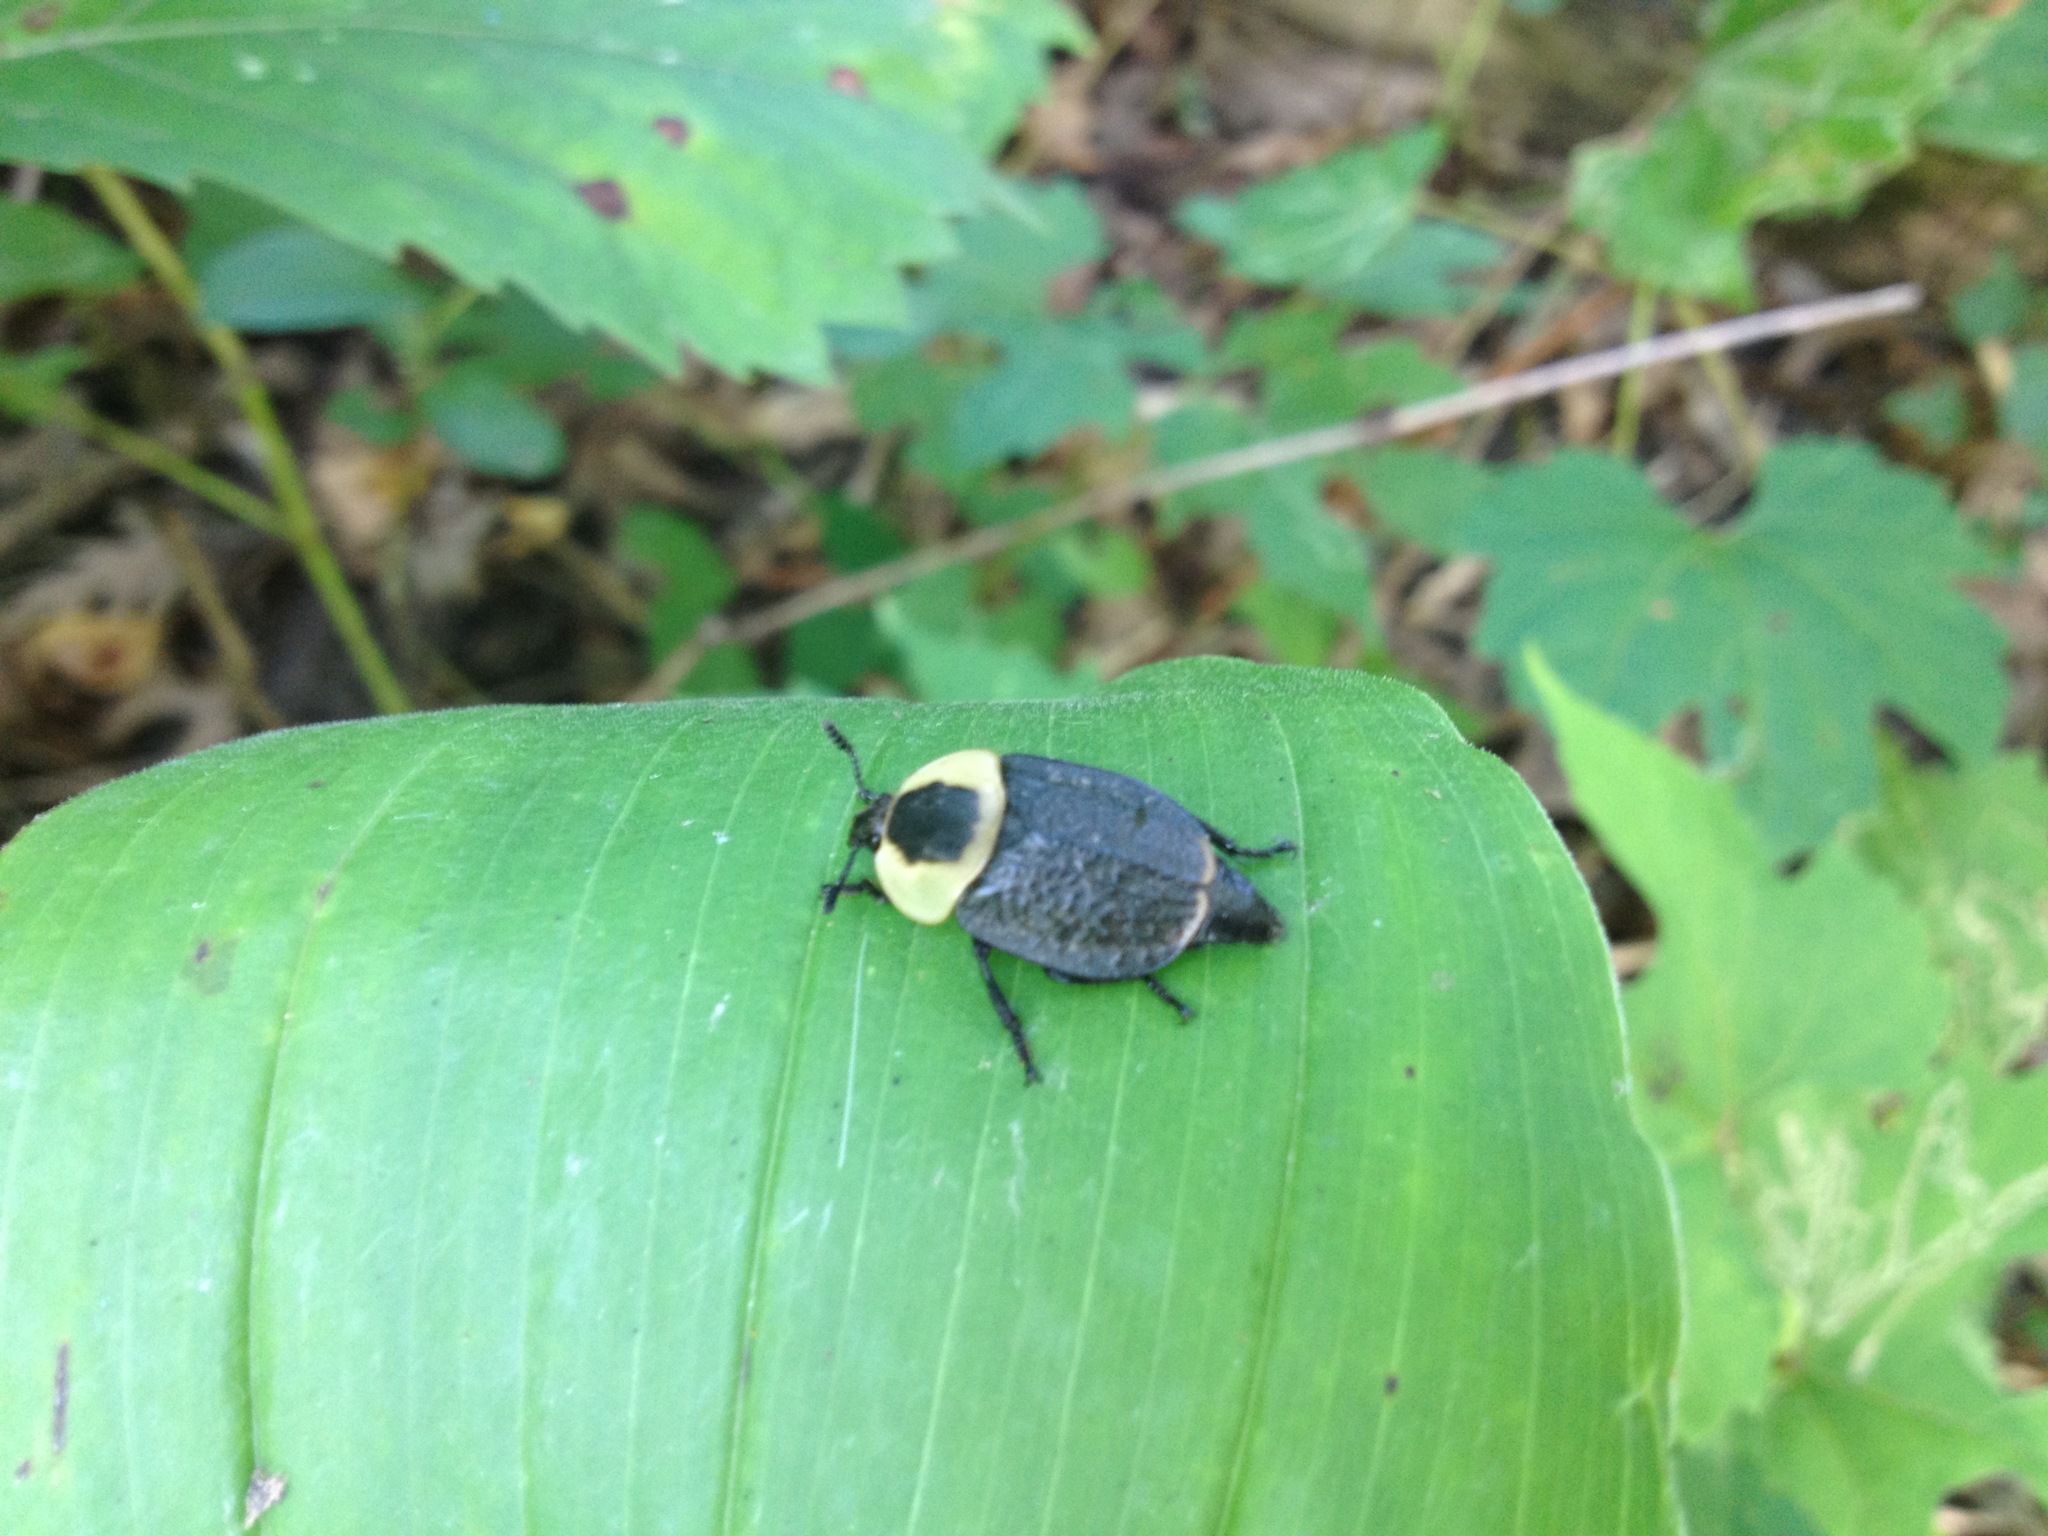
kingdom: Animalia
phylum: Arthropoda
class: Insecta
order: Coleoptera
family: Staphylinidae
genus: Necrophila
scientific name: Necrophila americana
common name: American carrion beetle
